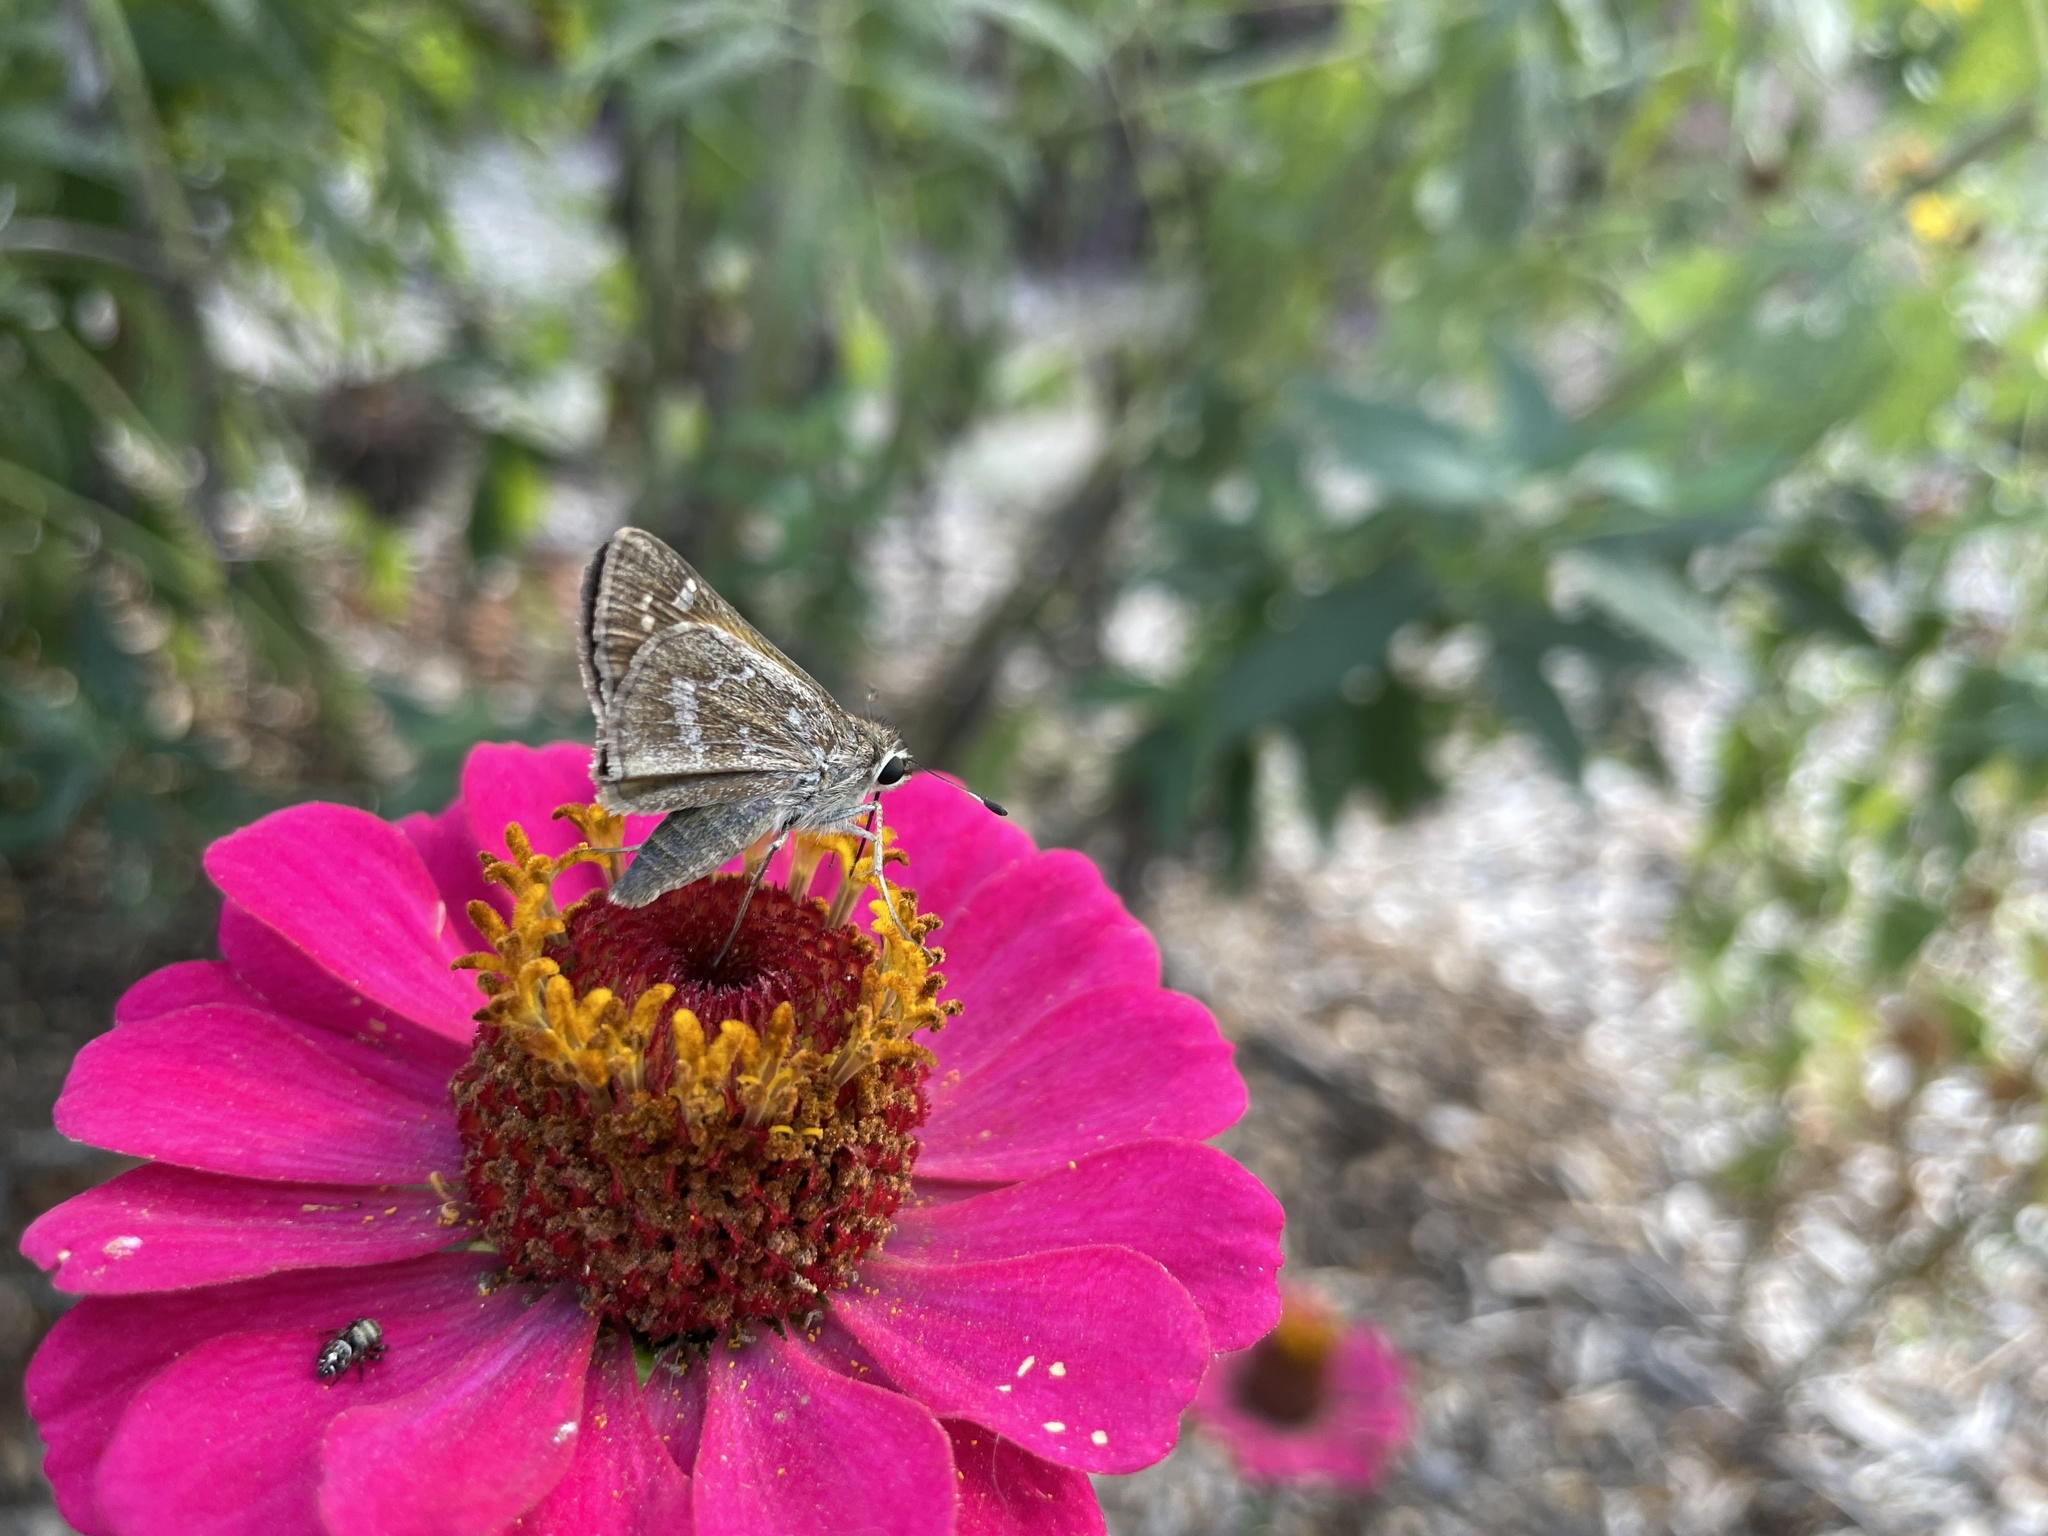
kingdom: Animalia
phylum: Arthropoda
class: Insecta
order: Lepidoptera
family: Hesperiidae
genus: Atalopedes
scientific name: Atalopedes
